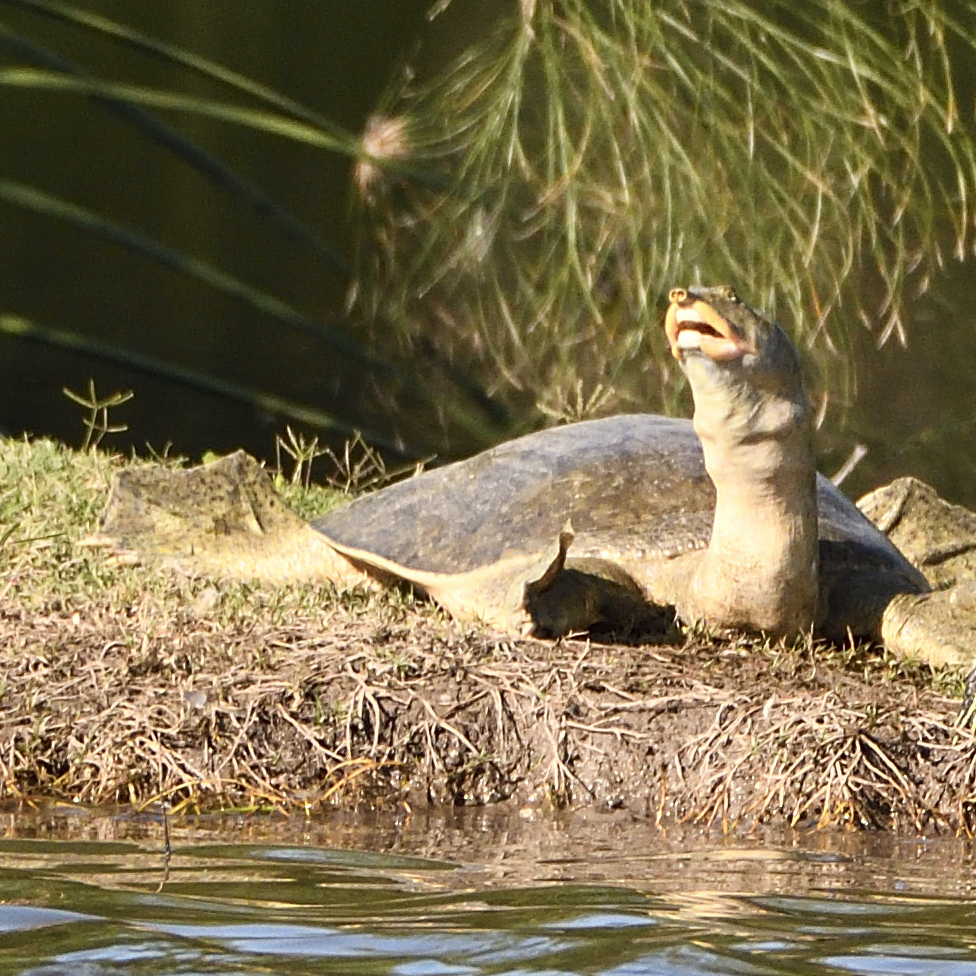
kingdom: Animalia
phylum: Chordata
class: Testudines
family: Trionychidae
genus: Apalone
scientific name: Apalone spinifera
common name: Spiny softshell turtle
